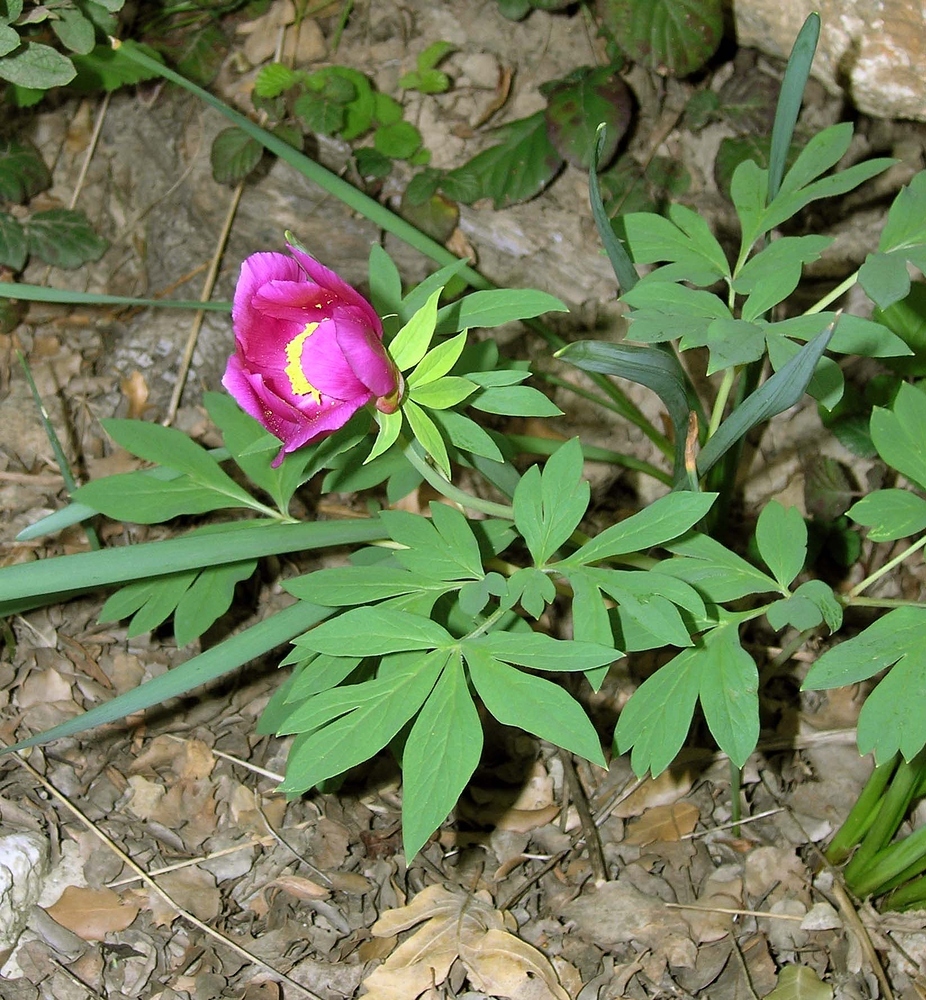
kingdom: Plantae
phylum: Tracheophyta
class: Magnoliopsida
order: Saxifragales
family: Paeoniaceae
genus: Paeonia
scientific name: Paeonia officinalis
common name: Common peony
